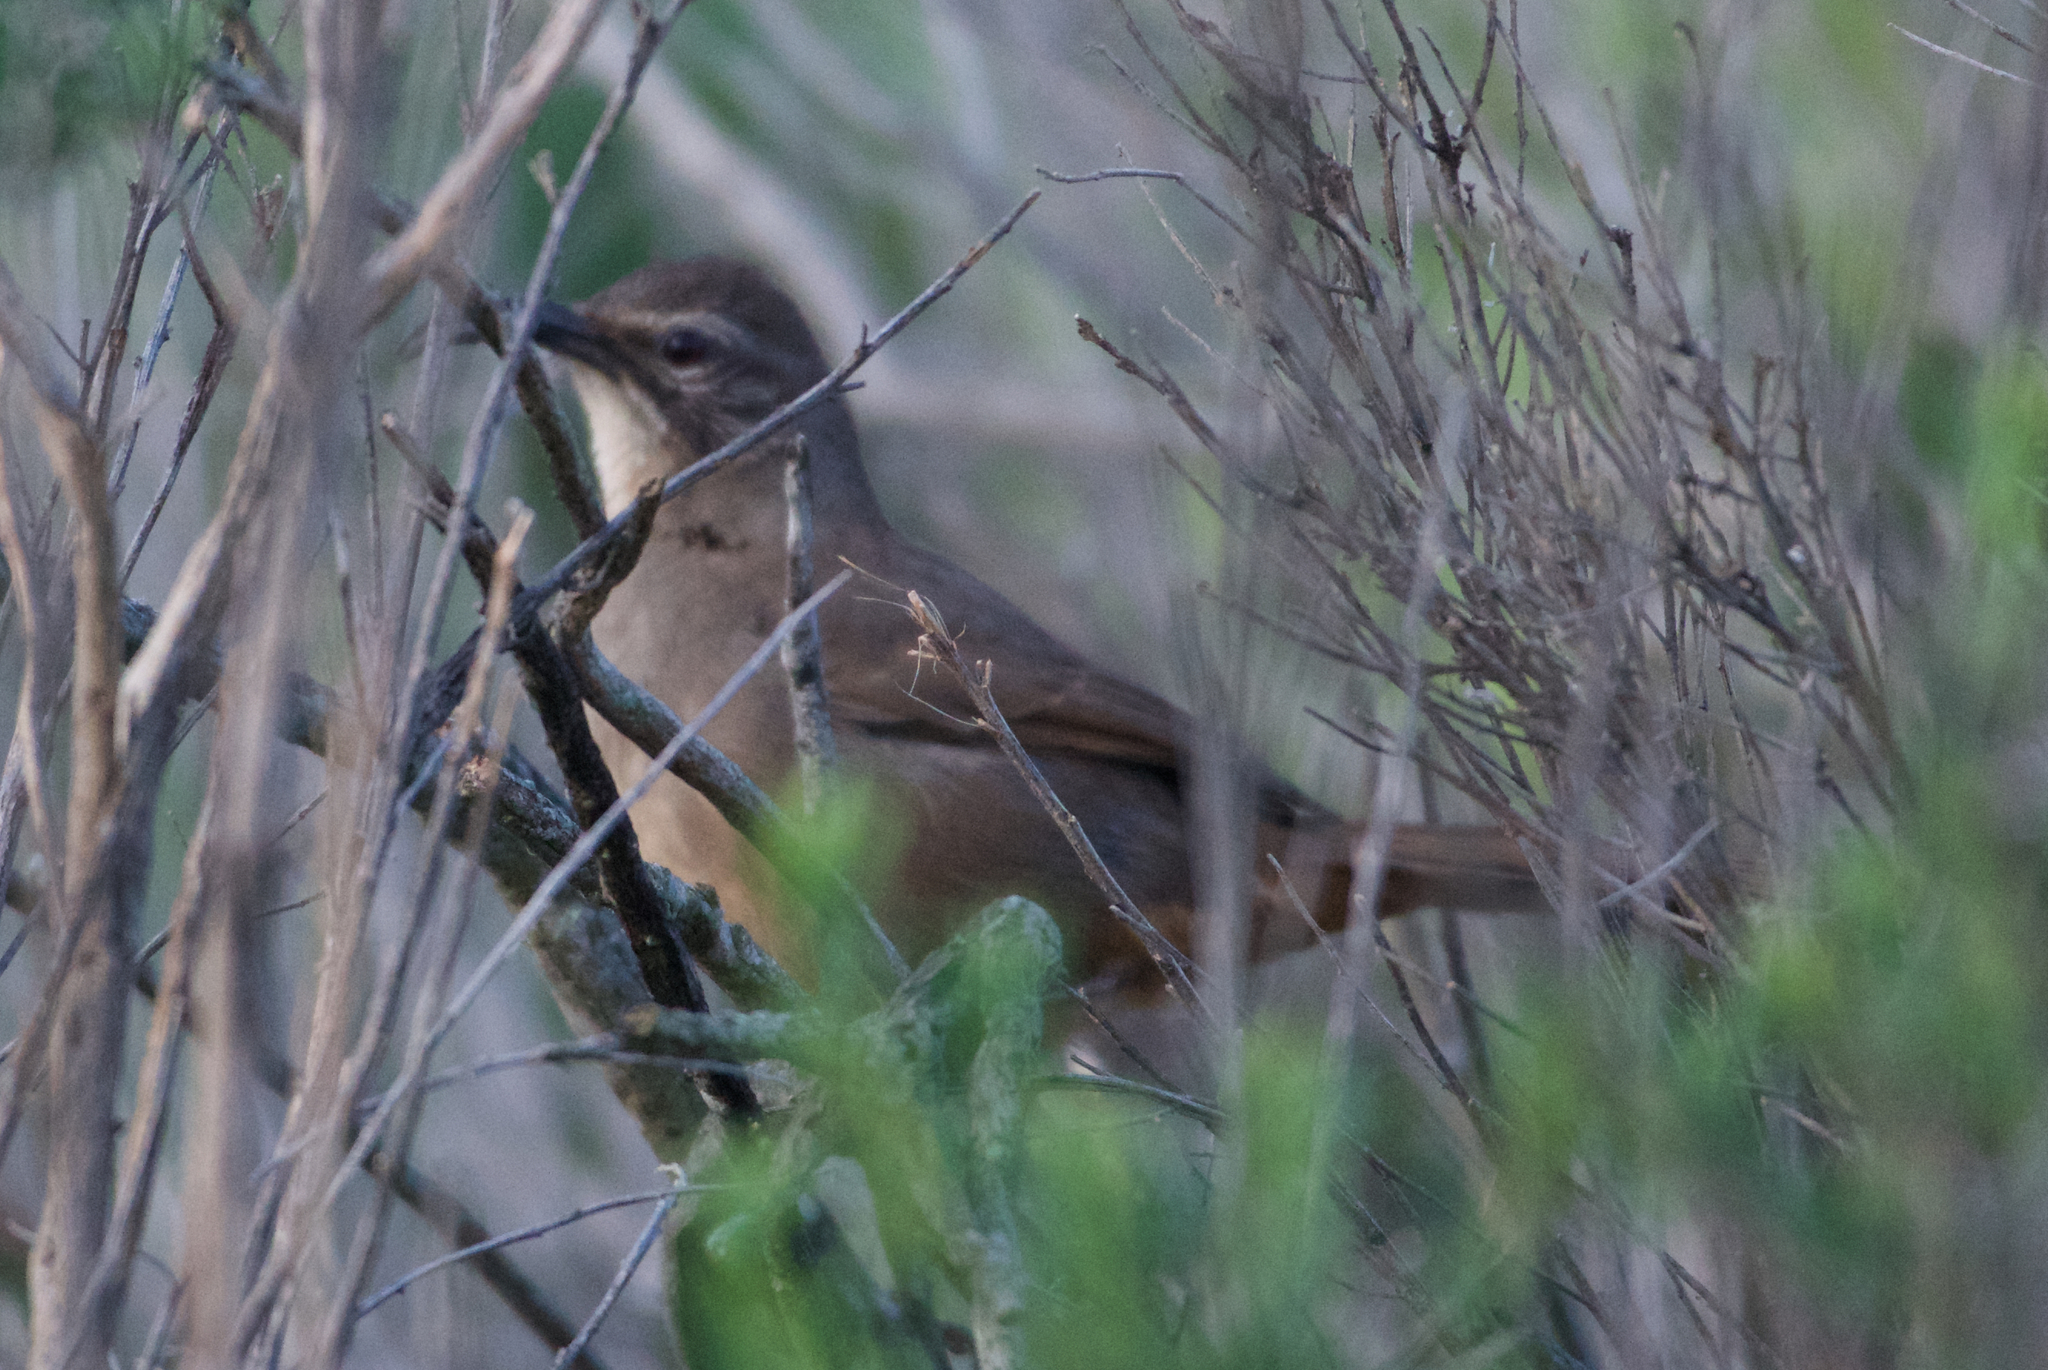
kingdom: Animalia
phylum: Chordata
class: Aves
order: Passeriformes
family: Mimidae
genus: Toxostoma
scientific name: Toxostoma redivivum
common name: California thrasher
